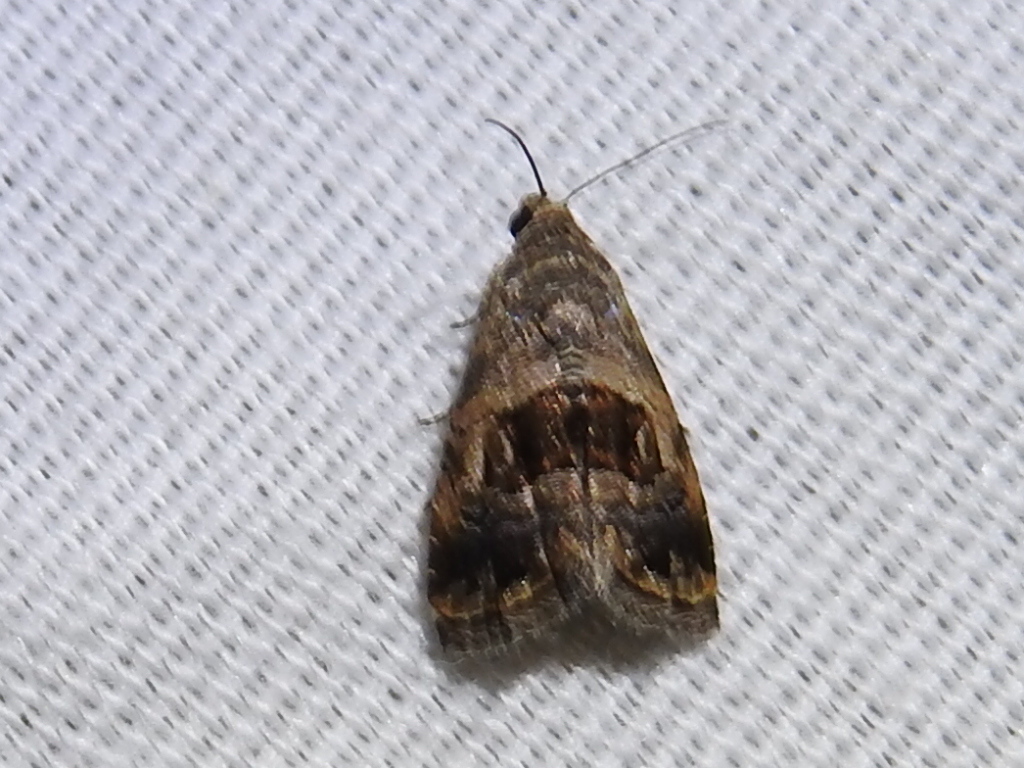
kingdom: Animalia
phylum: Arthropoda
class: Insecta
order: Lepidoptera
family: Noctuidae
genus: Tripudia
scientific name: Tripudia quadrifera
